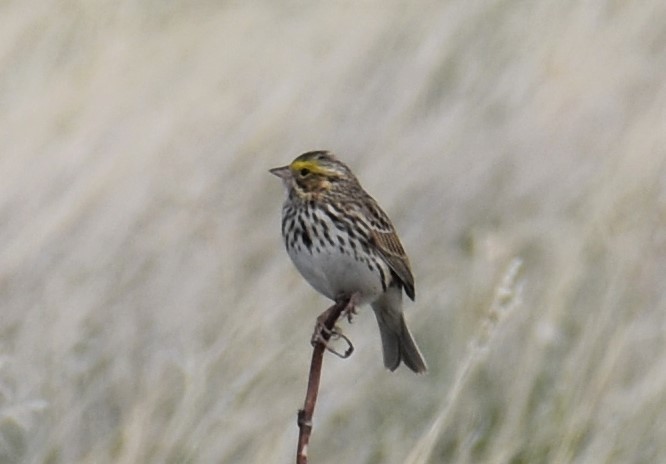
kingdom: Animalia
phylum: Chordata
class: Aves
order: Passeriformes
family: Passerellidae
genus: Passerculus
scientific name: Passerculus sandwichensis
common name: Savannah sparrow
